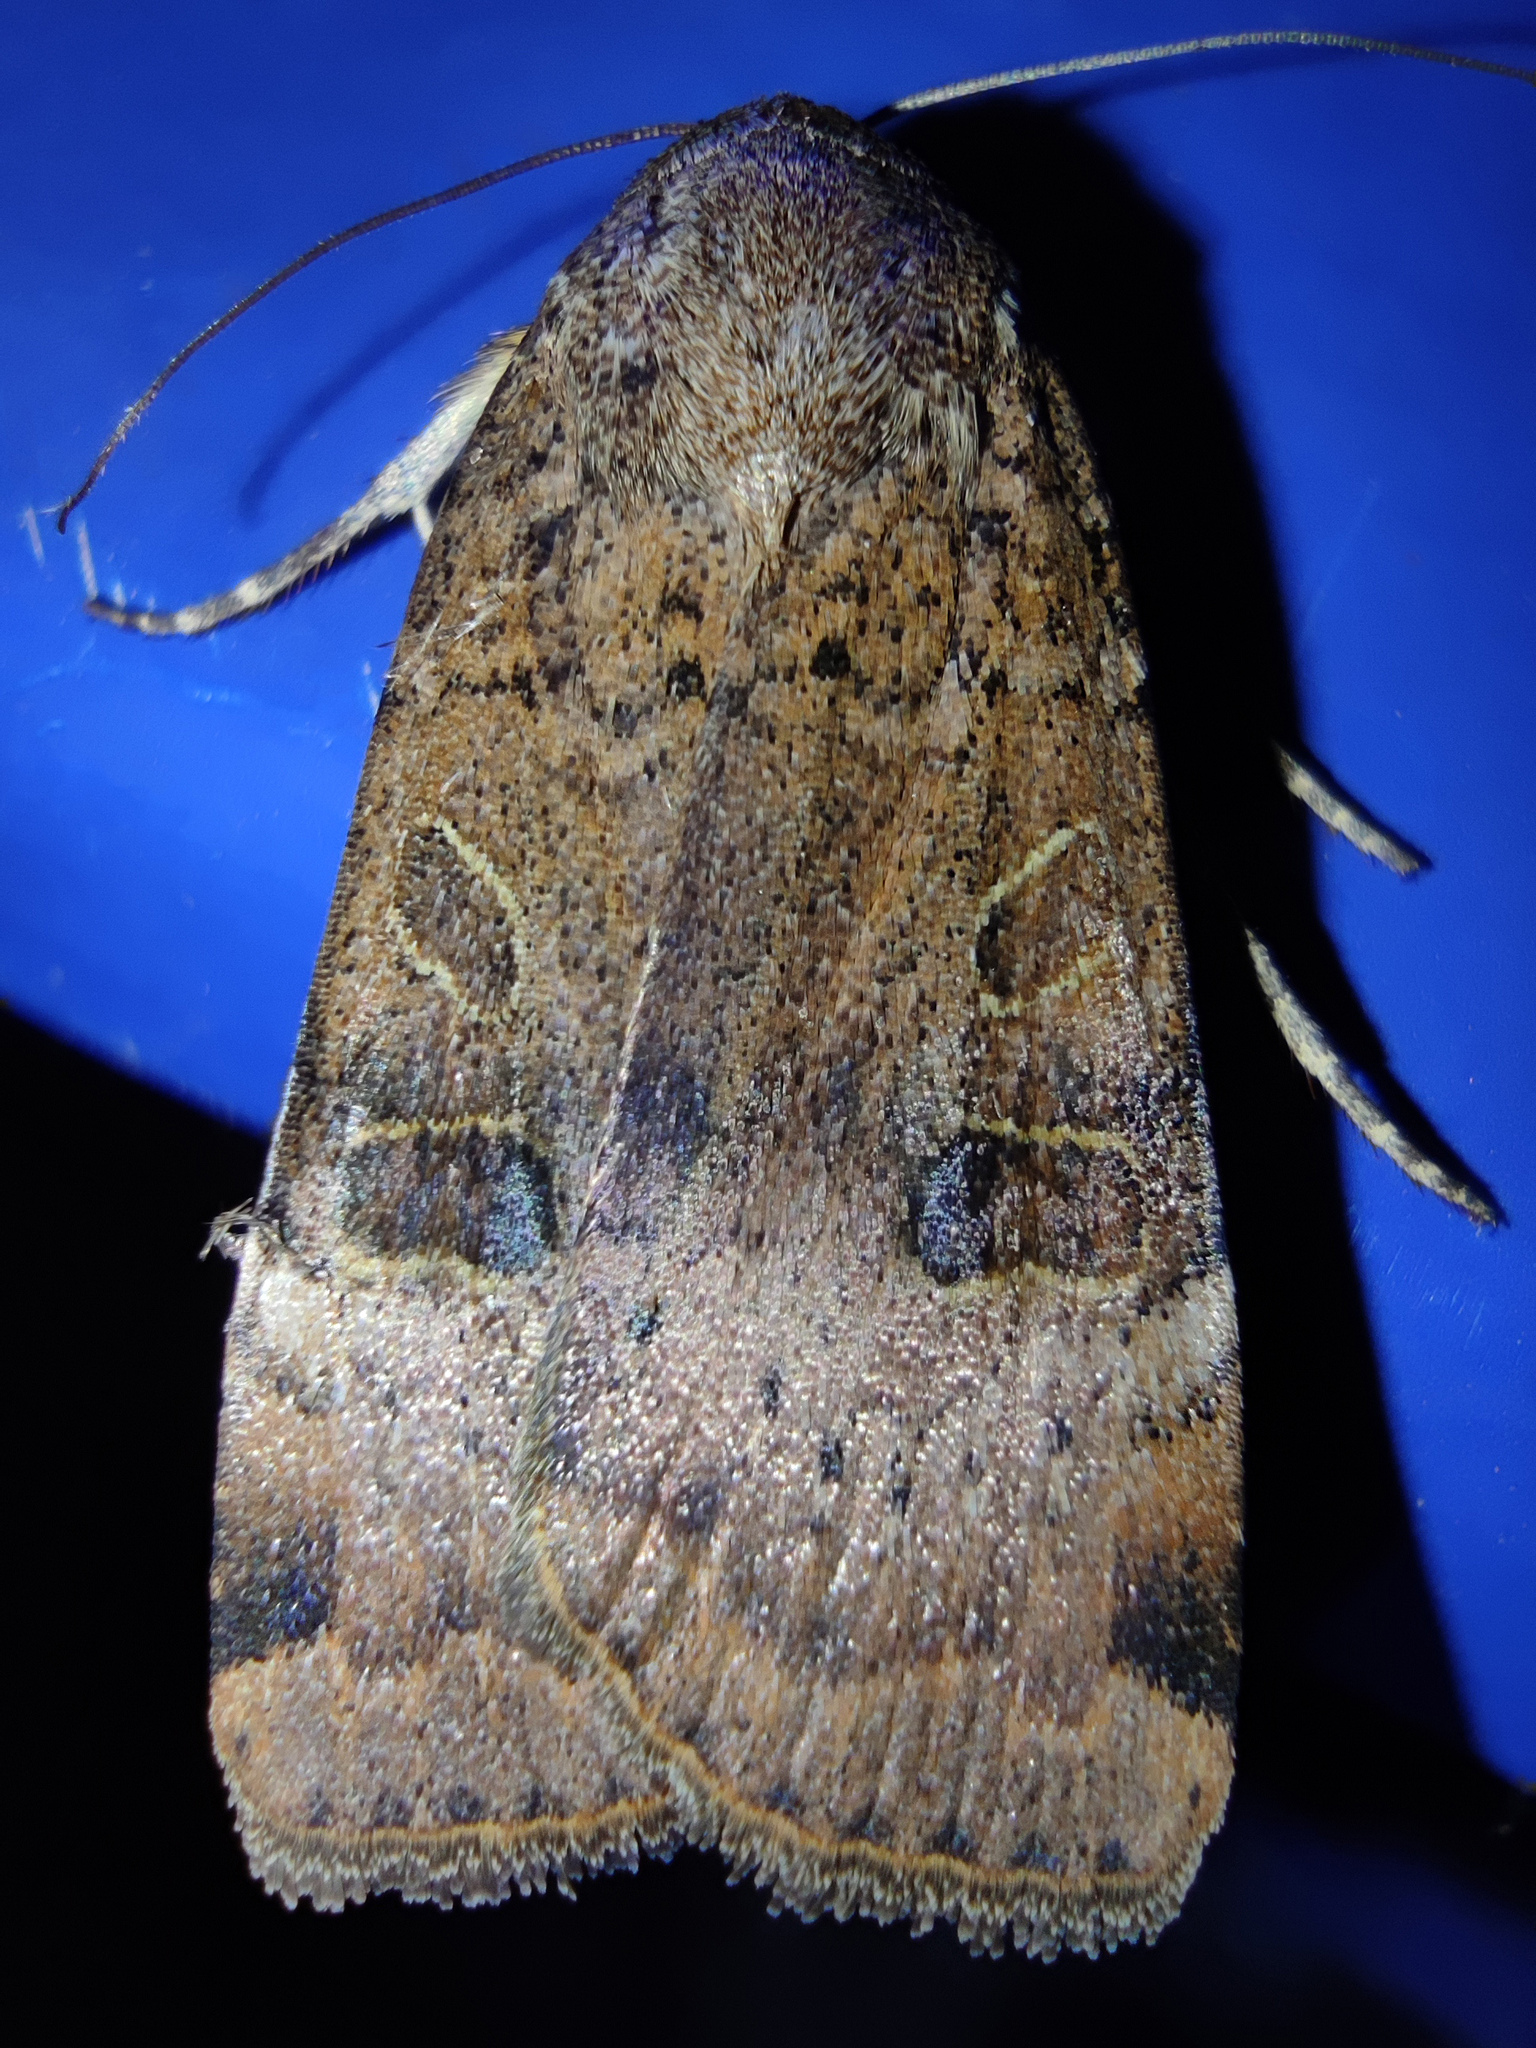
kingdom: Animalia
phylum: Arthropoda
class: Insecta
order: Lepidoptera
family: Noctuidae
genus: Noctua
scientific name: Noctua interposita
